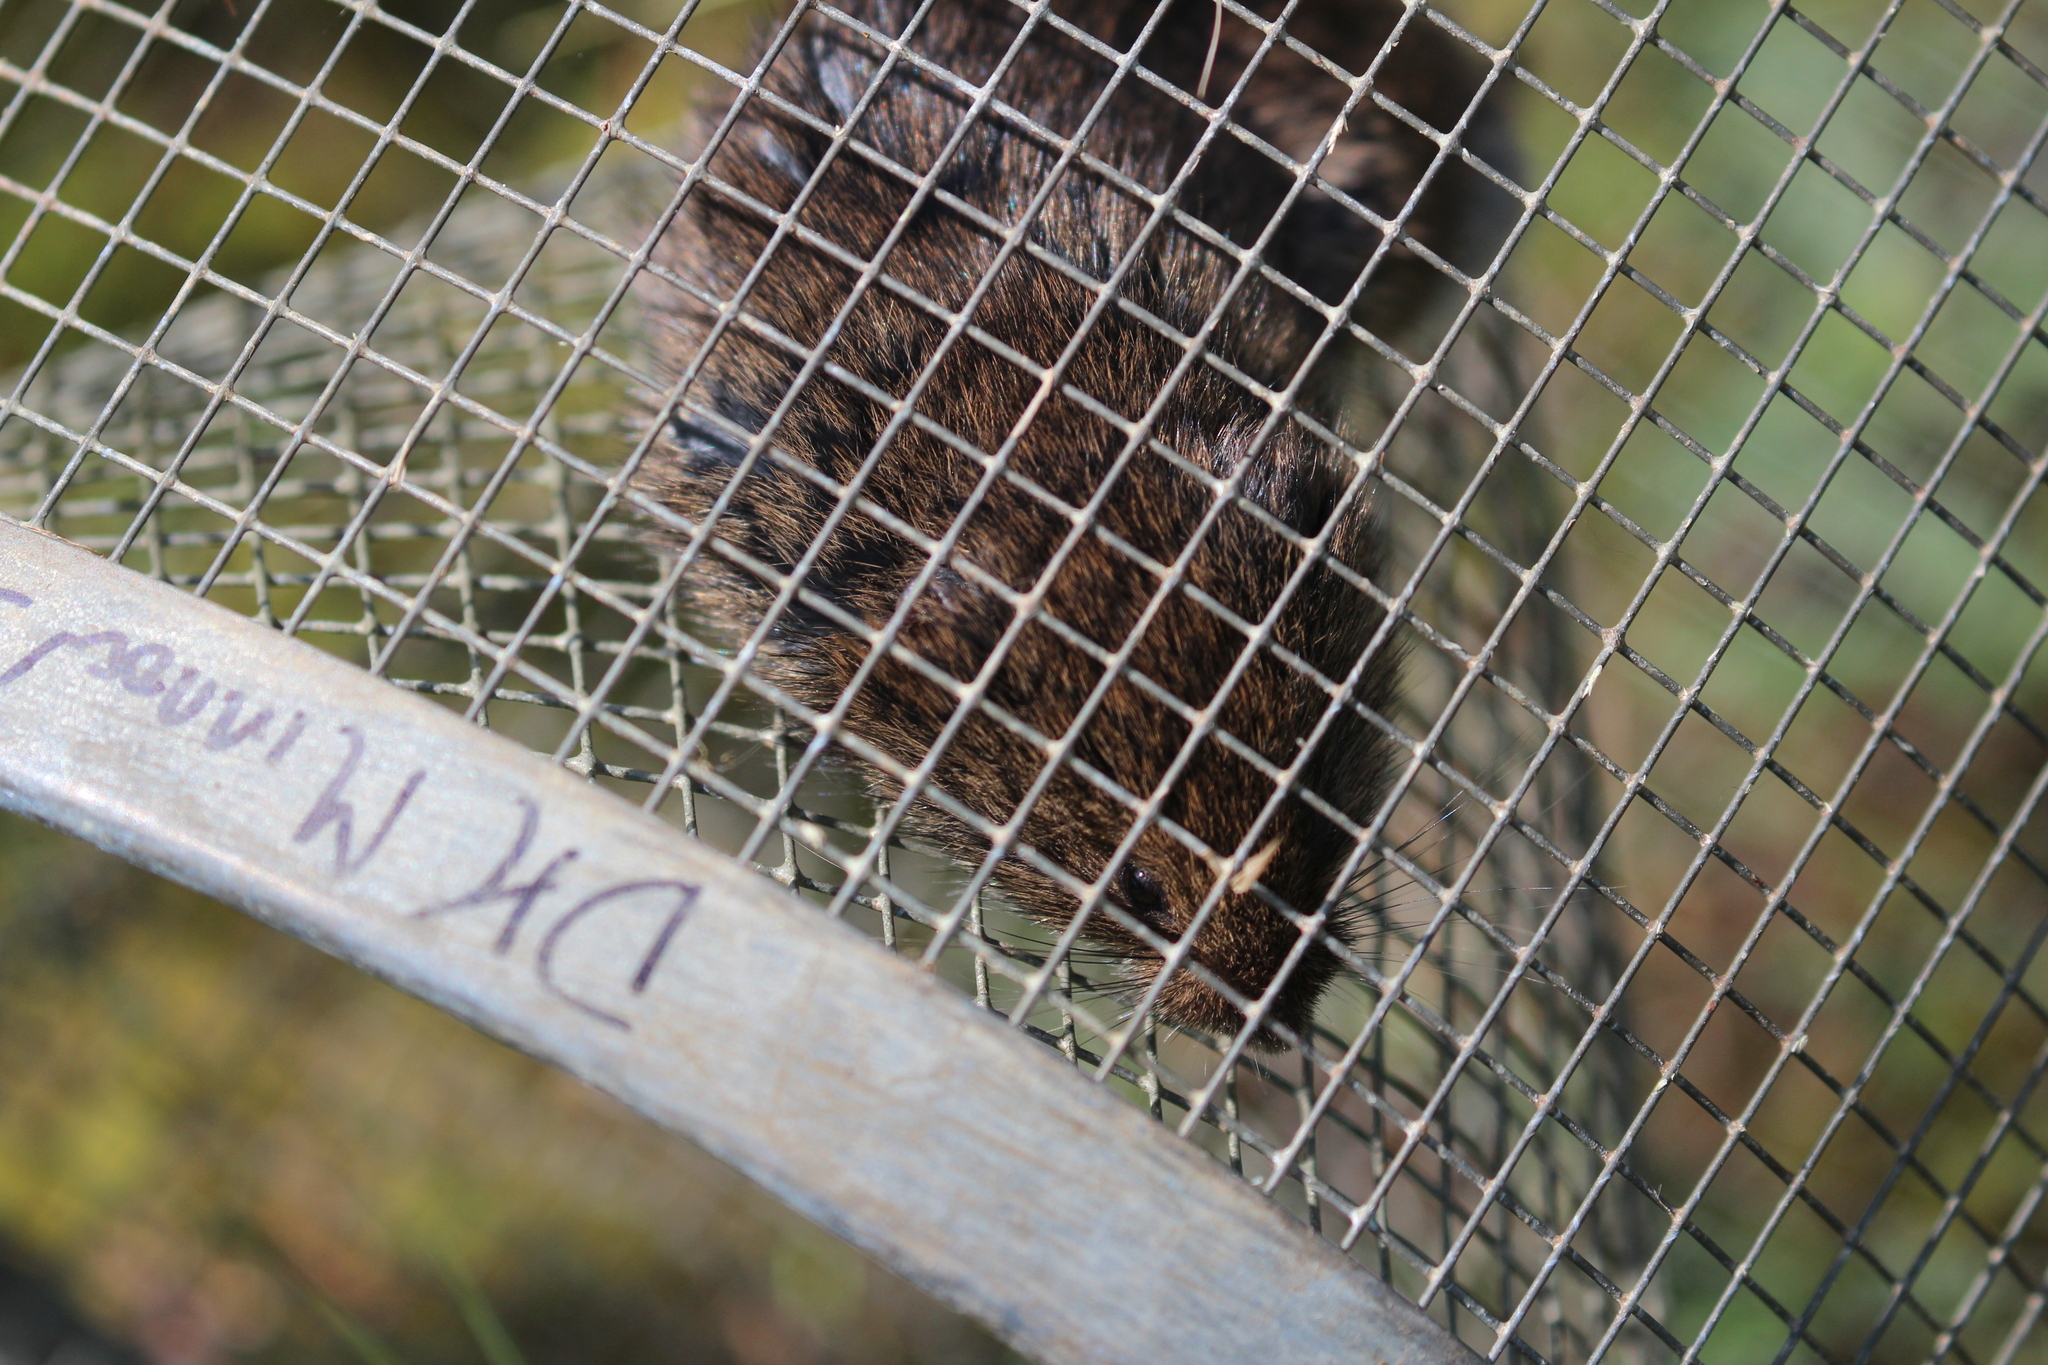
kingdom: Animalia
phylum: Chordata
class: Mammalia
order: Rodentia
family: Cricetidae
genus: Microtus
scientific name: Microtus pennsylvanicus
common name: Meadow vole
